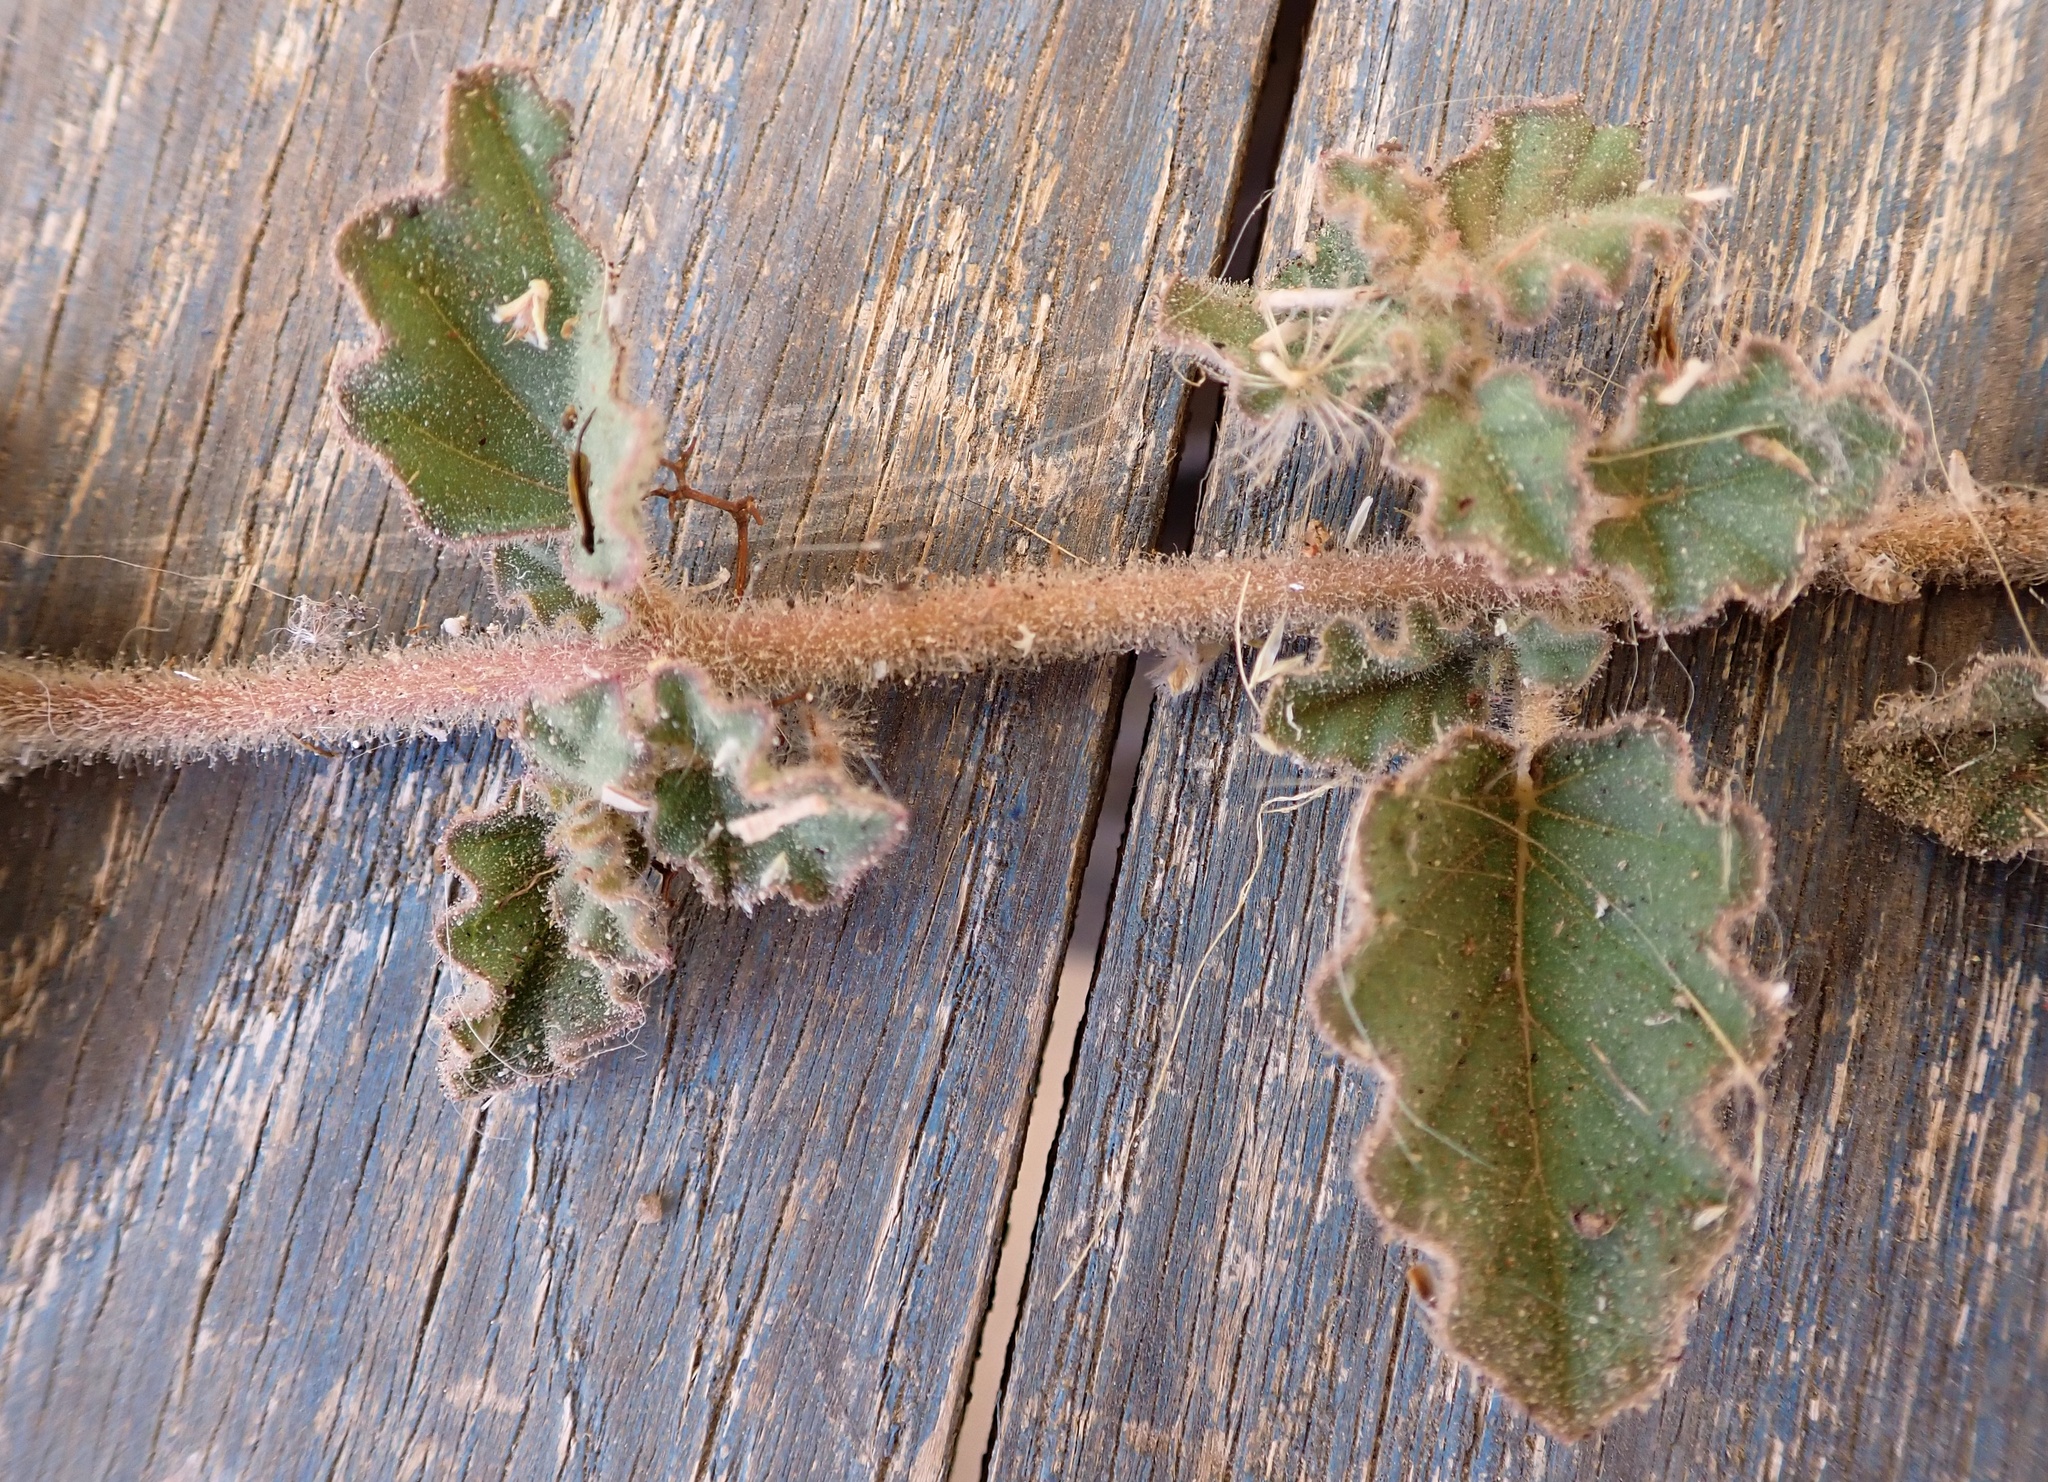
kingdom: Plantae
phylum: Tracheophyta
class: Magnoliopsida
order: Caryophyllales
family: Nyctaginaceae
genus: Allionia
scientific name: Allionia incarnata
